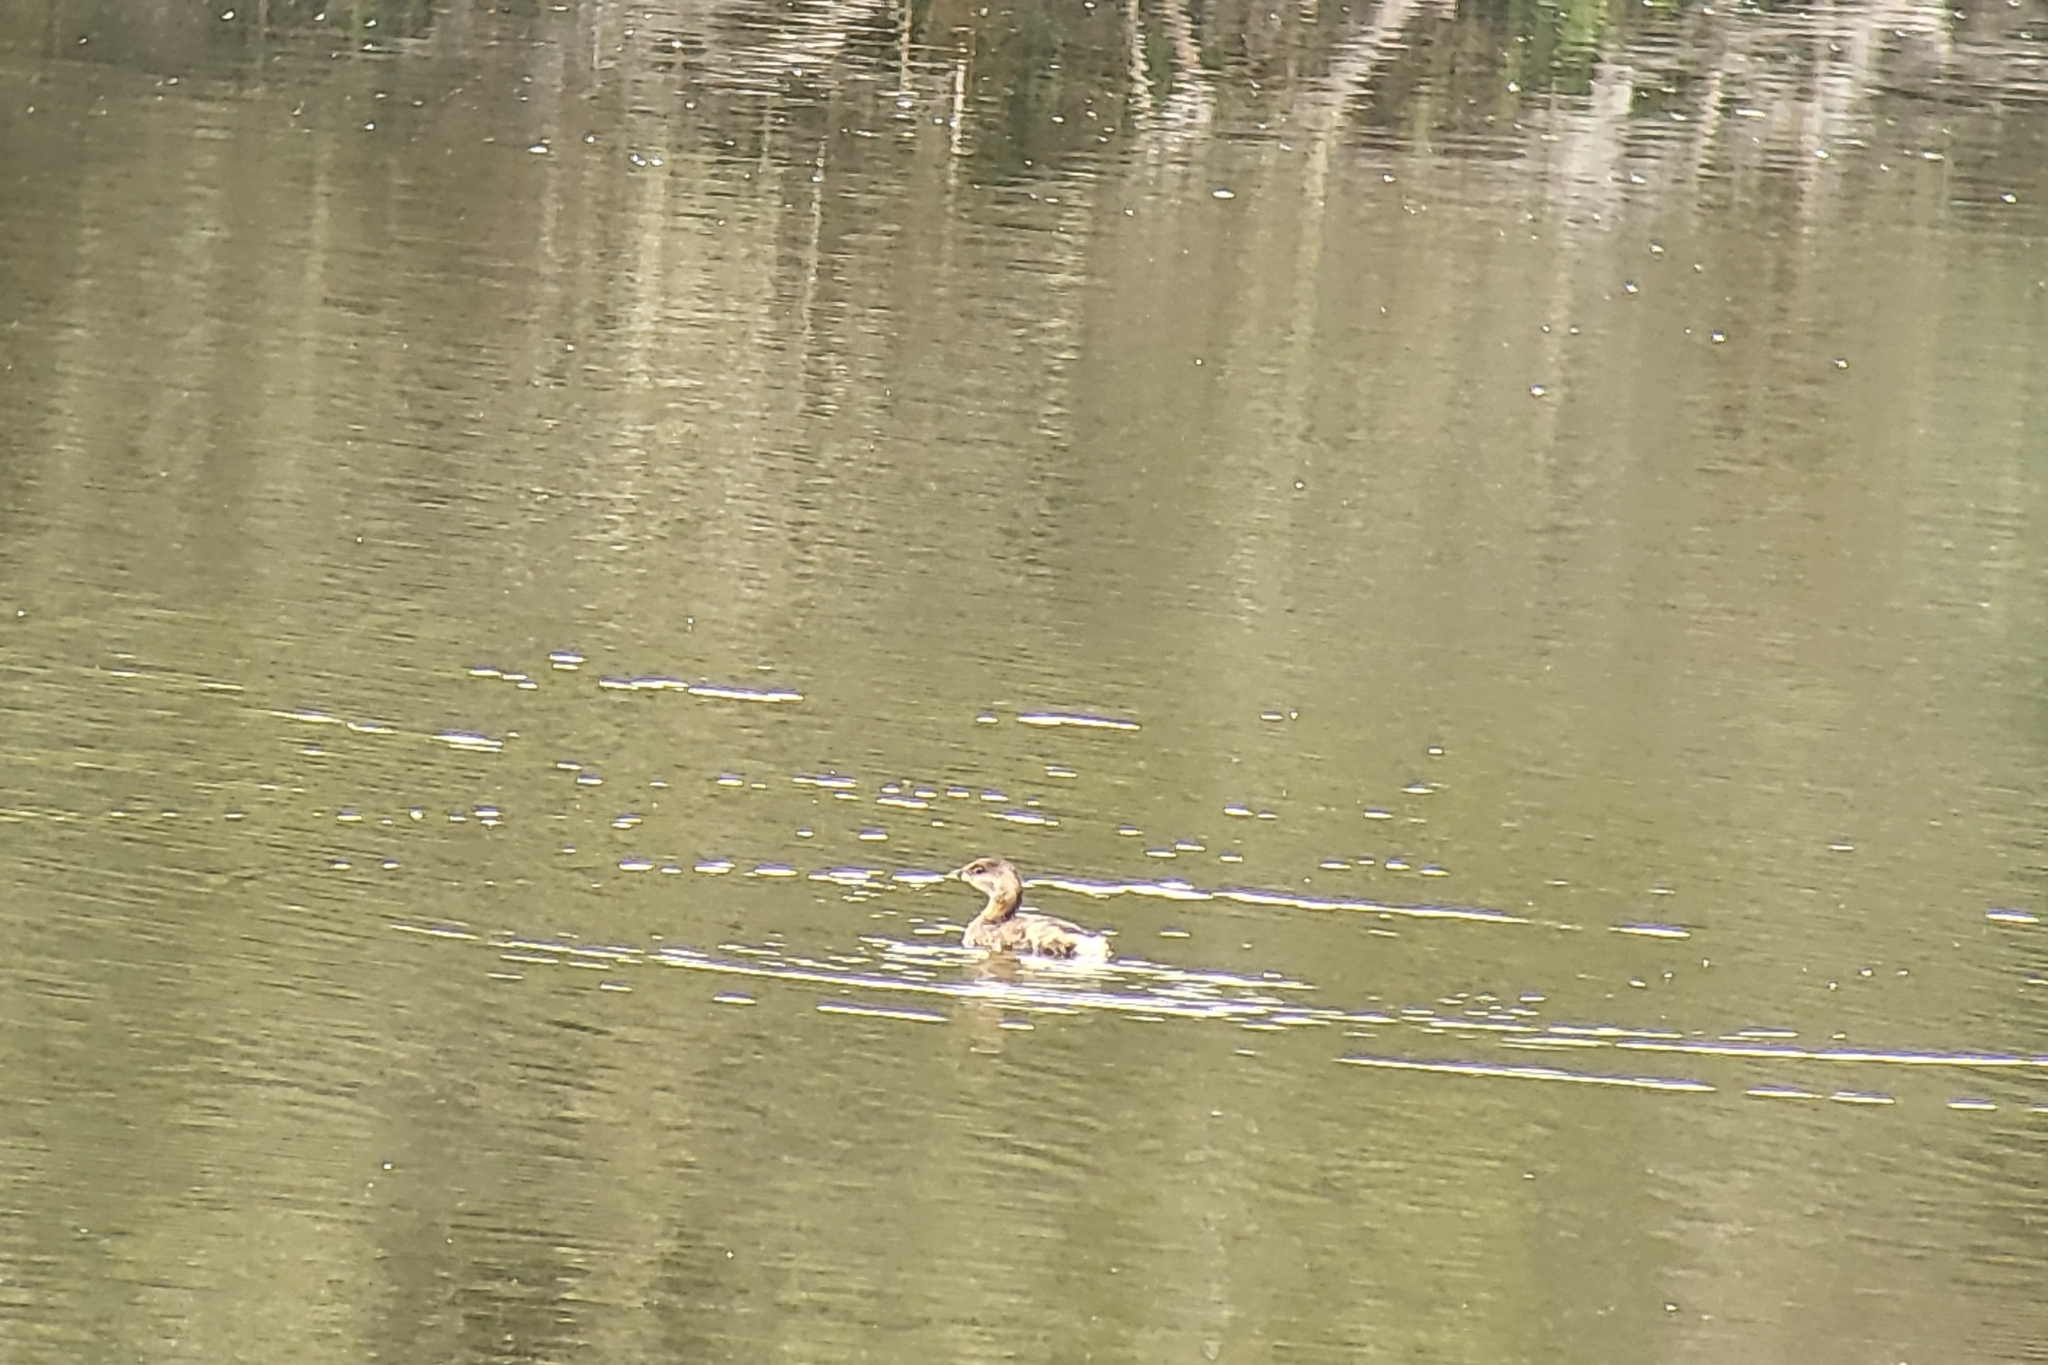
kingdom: Animalia
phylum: Chordata
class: Aves
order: Podicipediformes
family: Podicipedidae
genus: Podilymbus
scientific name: Podilymbus podiceps
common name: Pied-billed grebe
